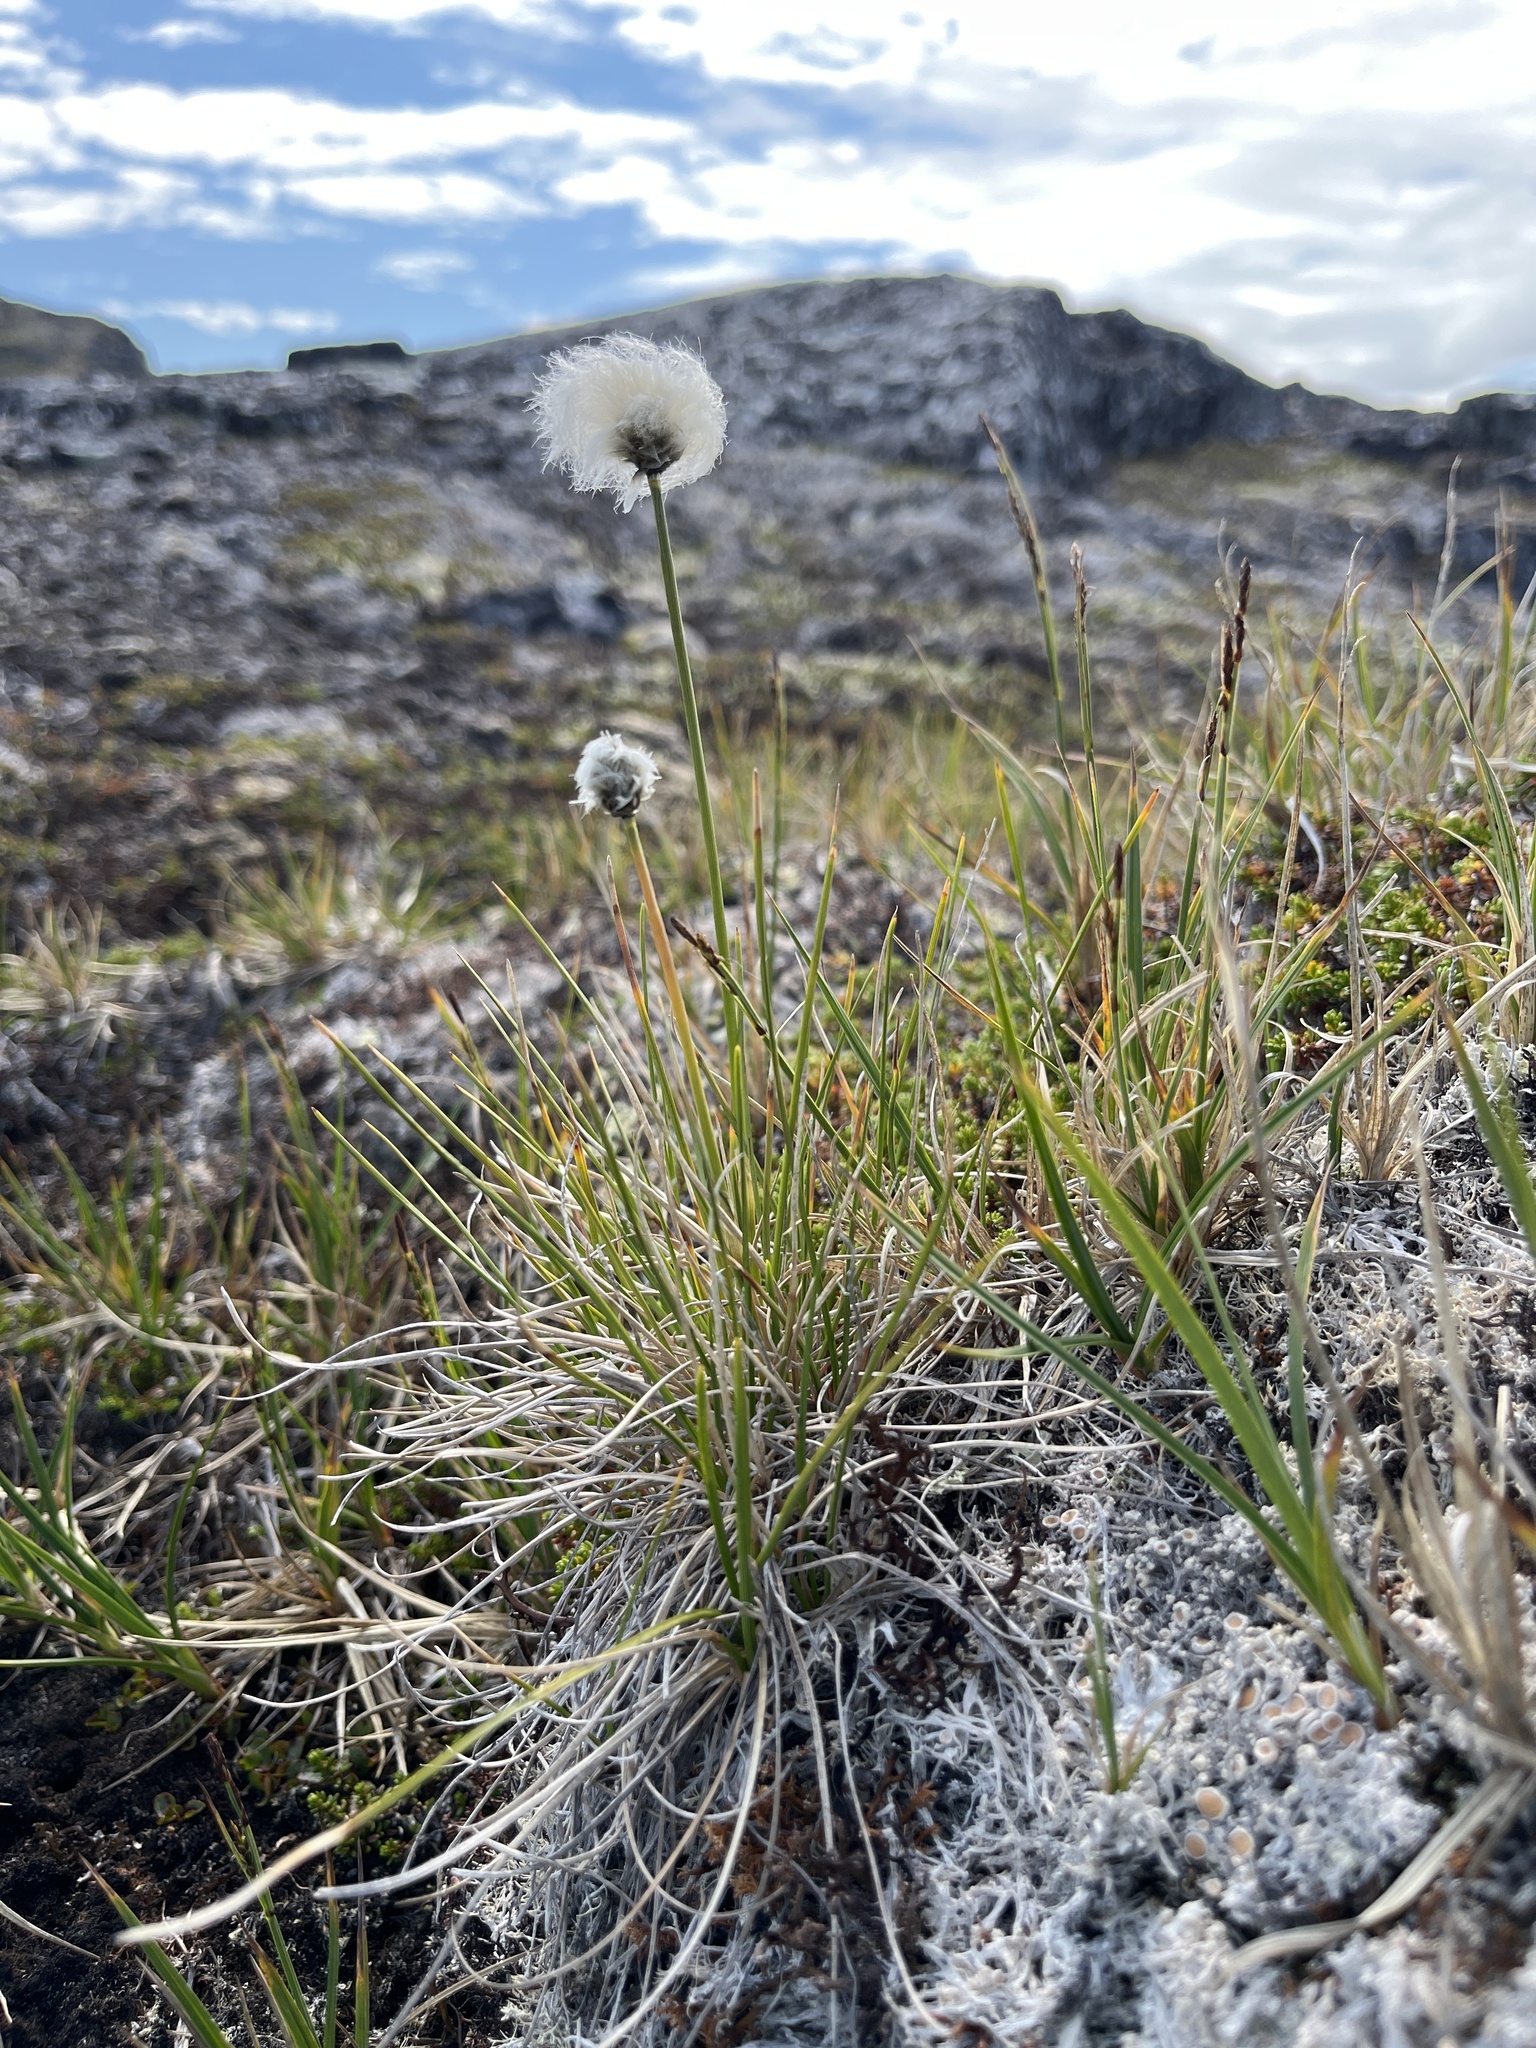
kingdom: Plantae
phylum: Tracheophyta
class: Liliopsida
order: Poales
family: Cyperaceae
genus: Eriophorum
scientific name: Eriophorum vaginatum
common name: Hare's-tail cottongrass
